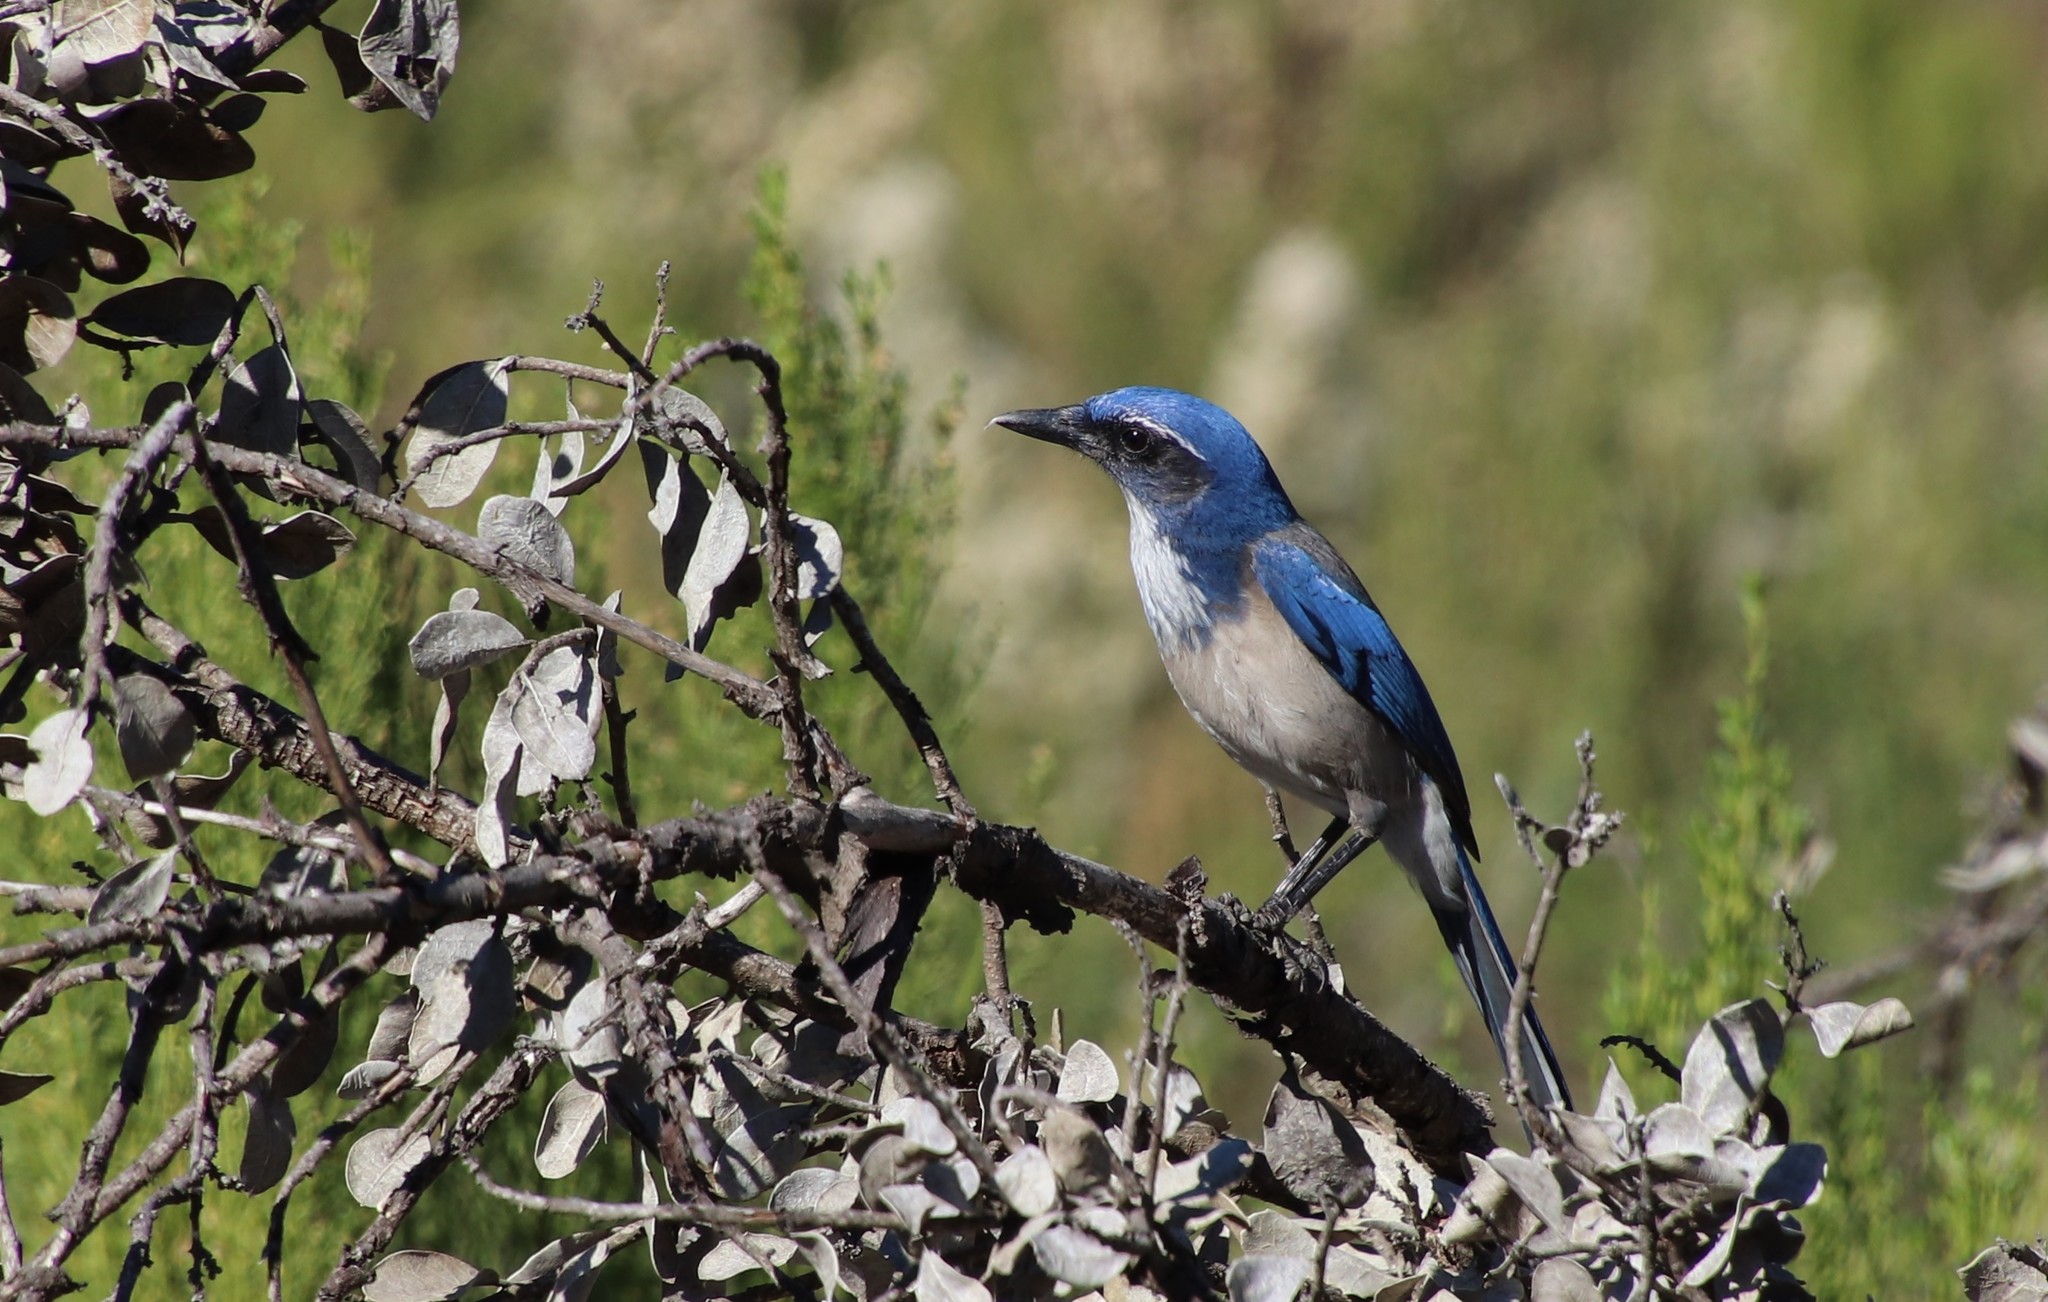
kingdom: Animalia
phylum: Chordata
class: Aves
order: Passeriformes
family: Corvidae
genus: Aphelocoma
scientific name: Aphelocoma californica
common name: California scrub-jay
